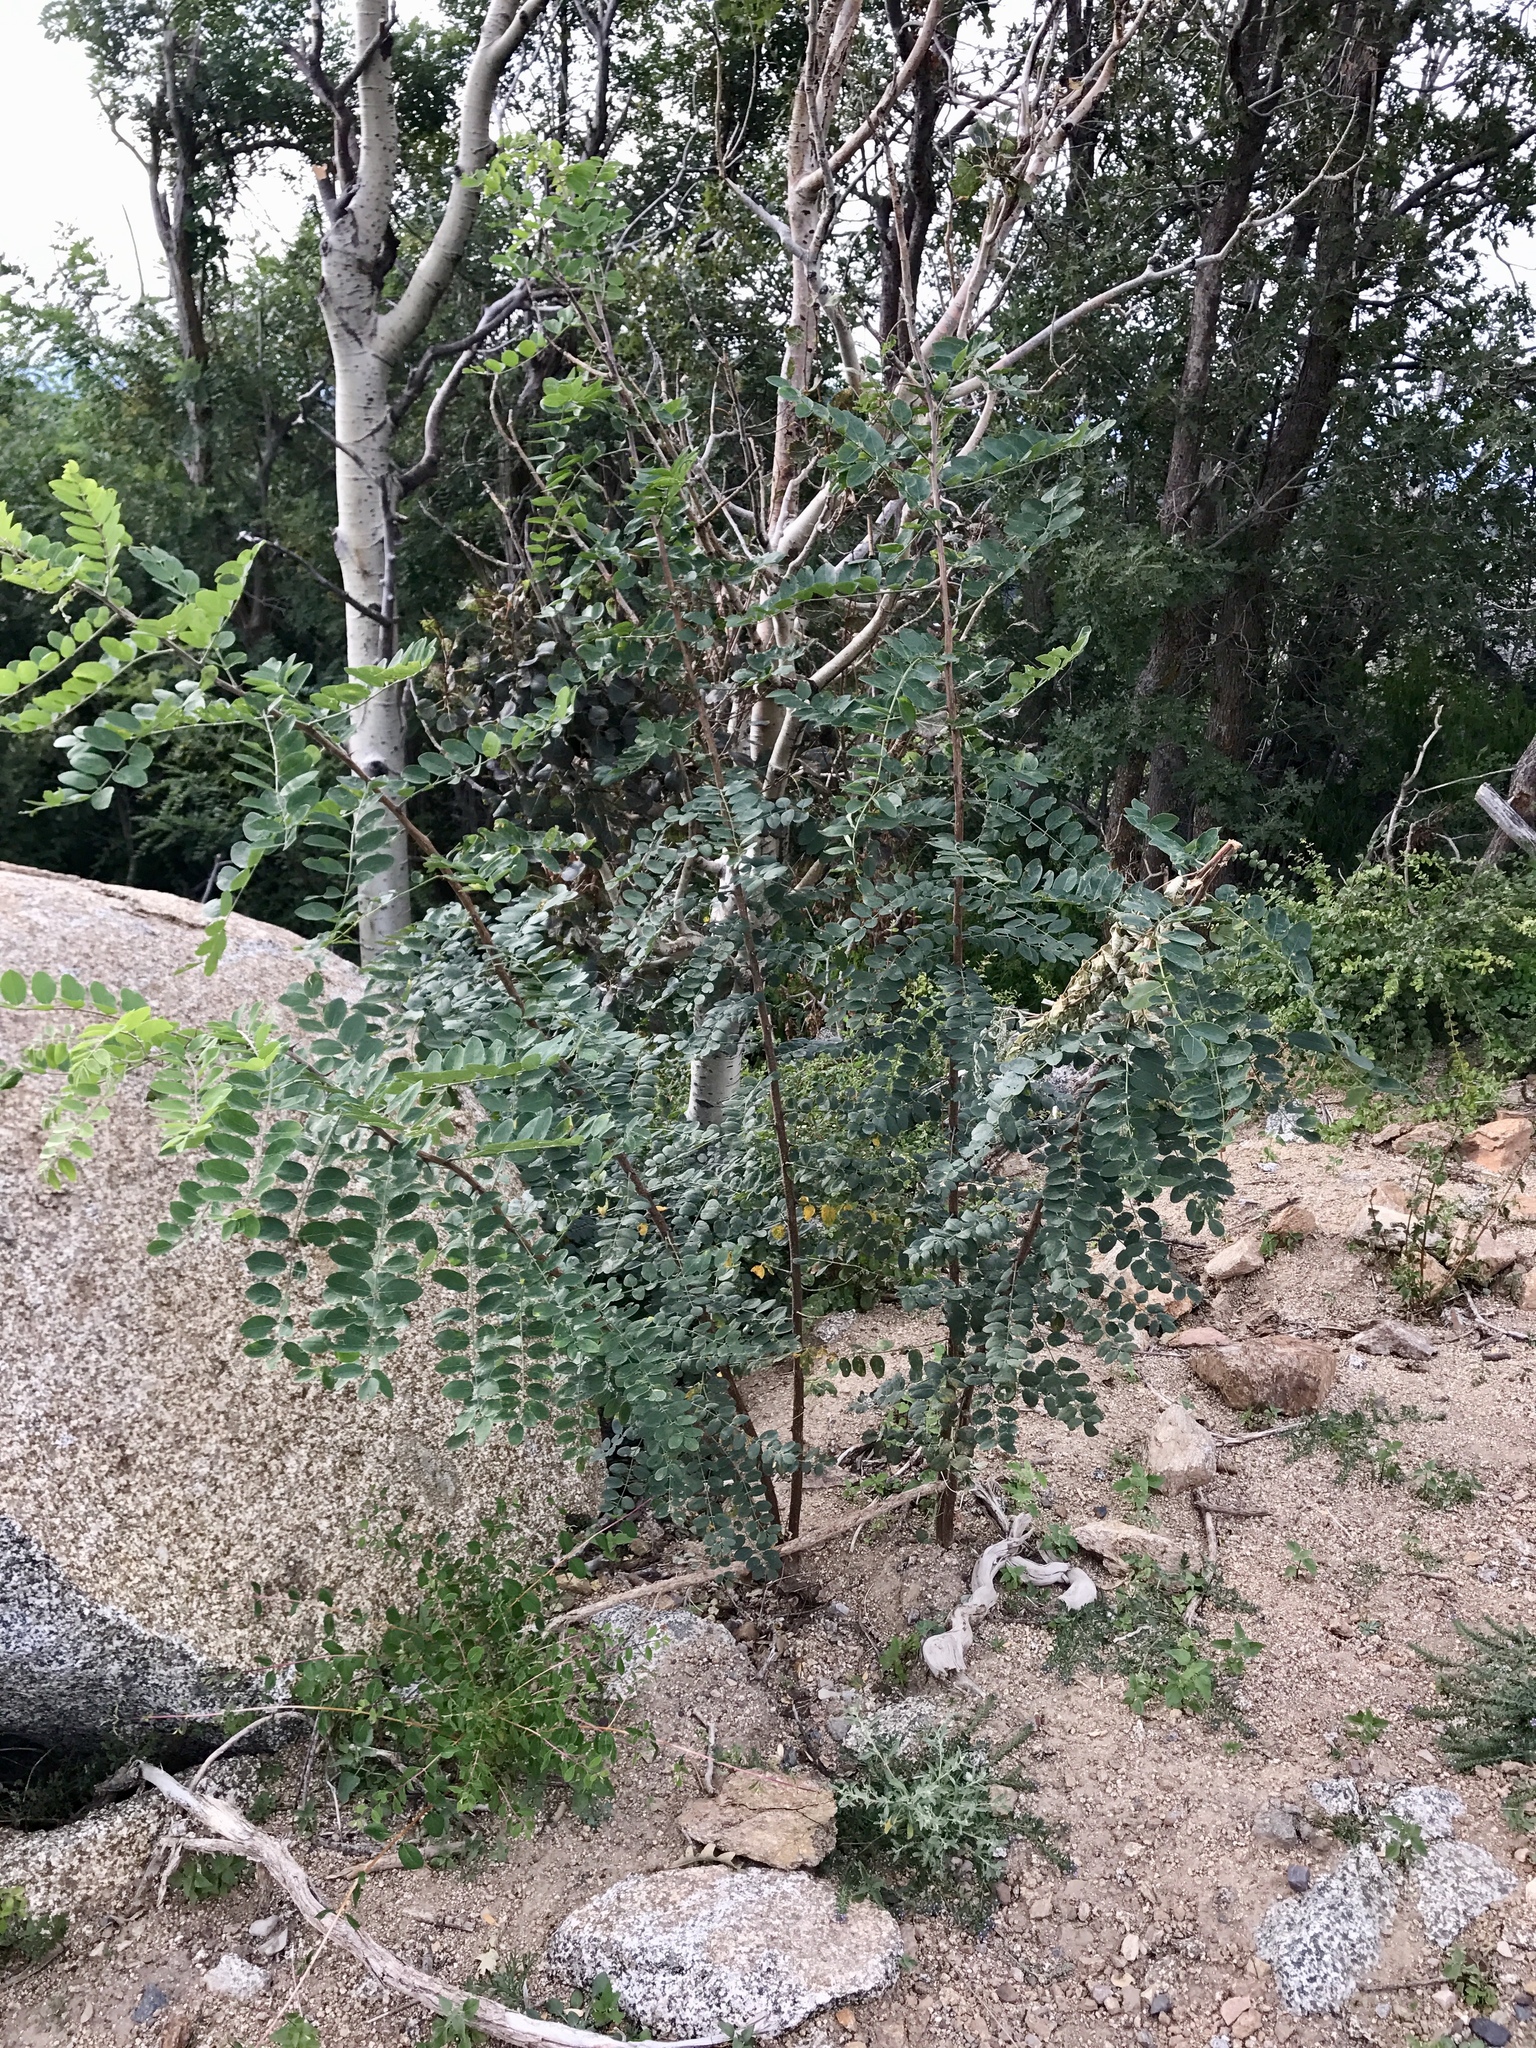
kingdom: Plantae
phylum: Tracheophyta
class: Magnoliopsida
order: Fabales
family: Fabaceae
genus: Robinia
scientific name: Robinia neomexicana
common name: New mexico locust
